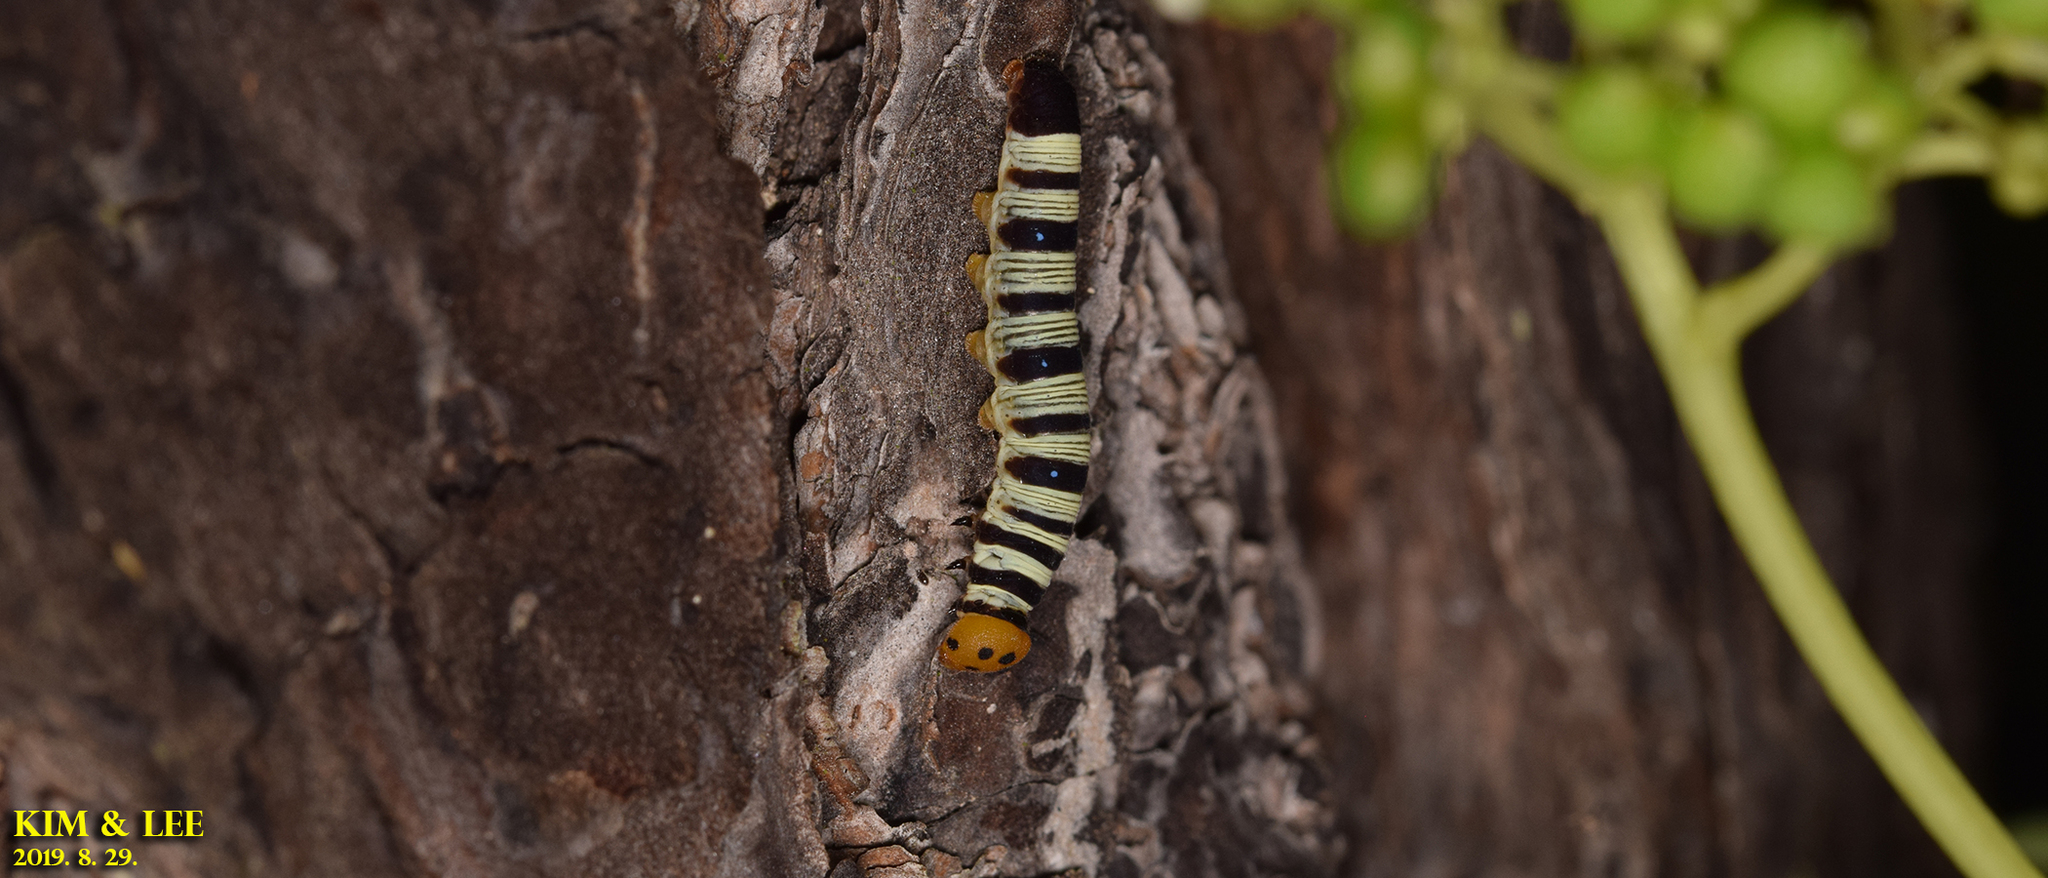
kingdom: Animalia
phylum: Arthropoda
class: Insecta
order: Lepidoptera
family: Hesperiidae
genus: Choaspes
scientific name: Choaspes benjaminii
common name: Indian awlking
